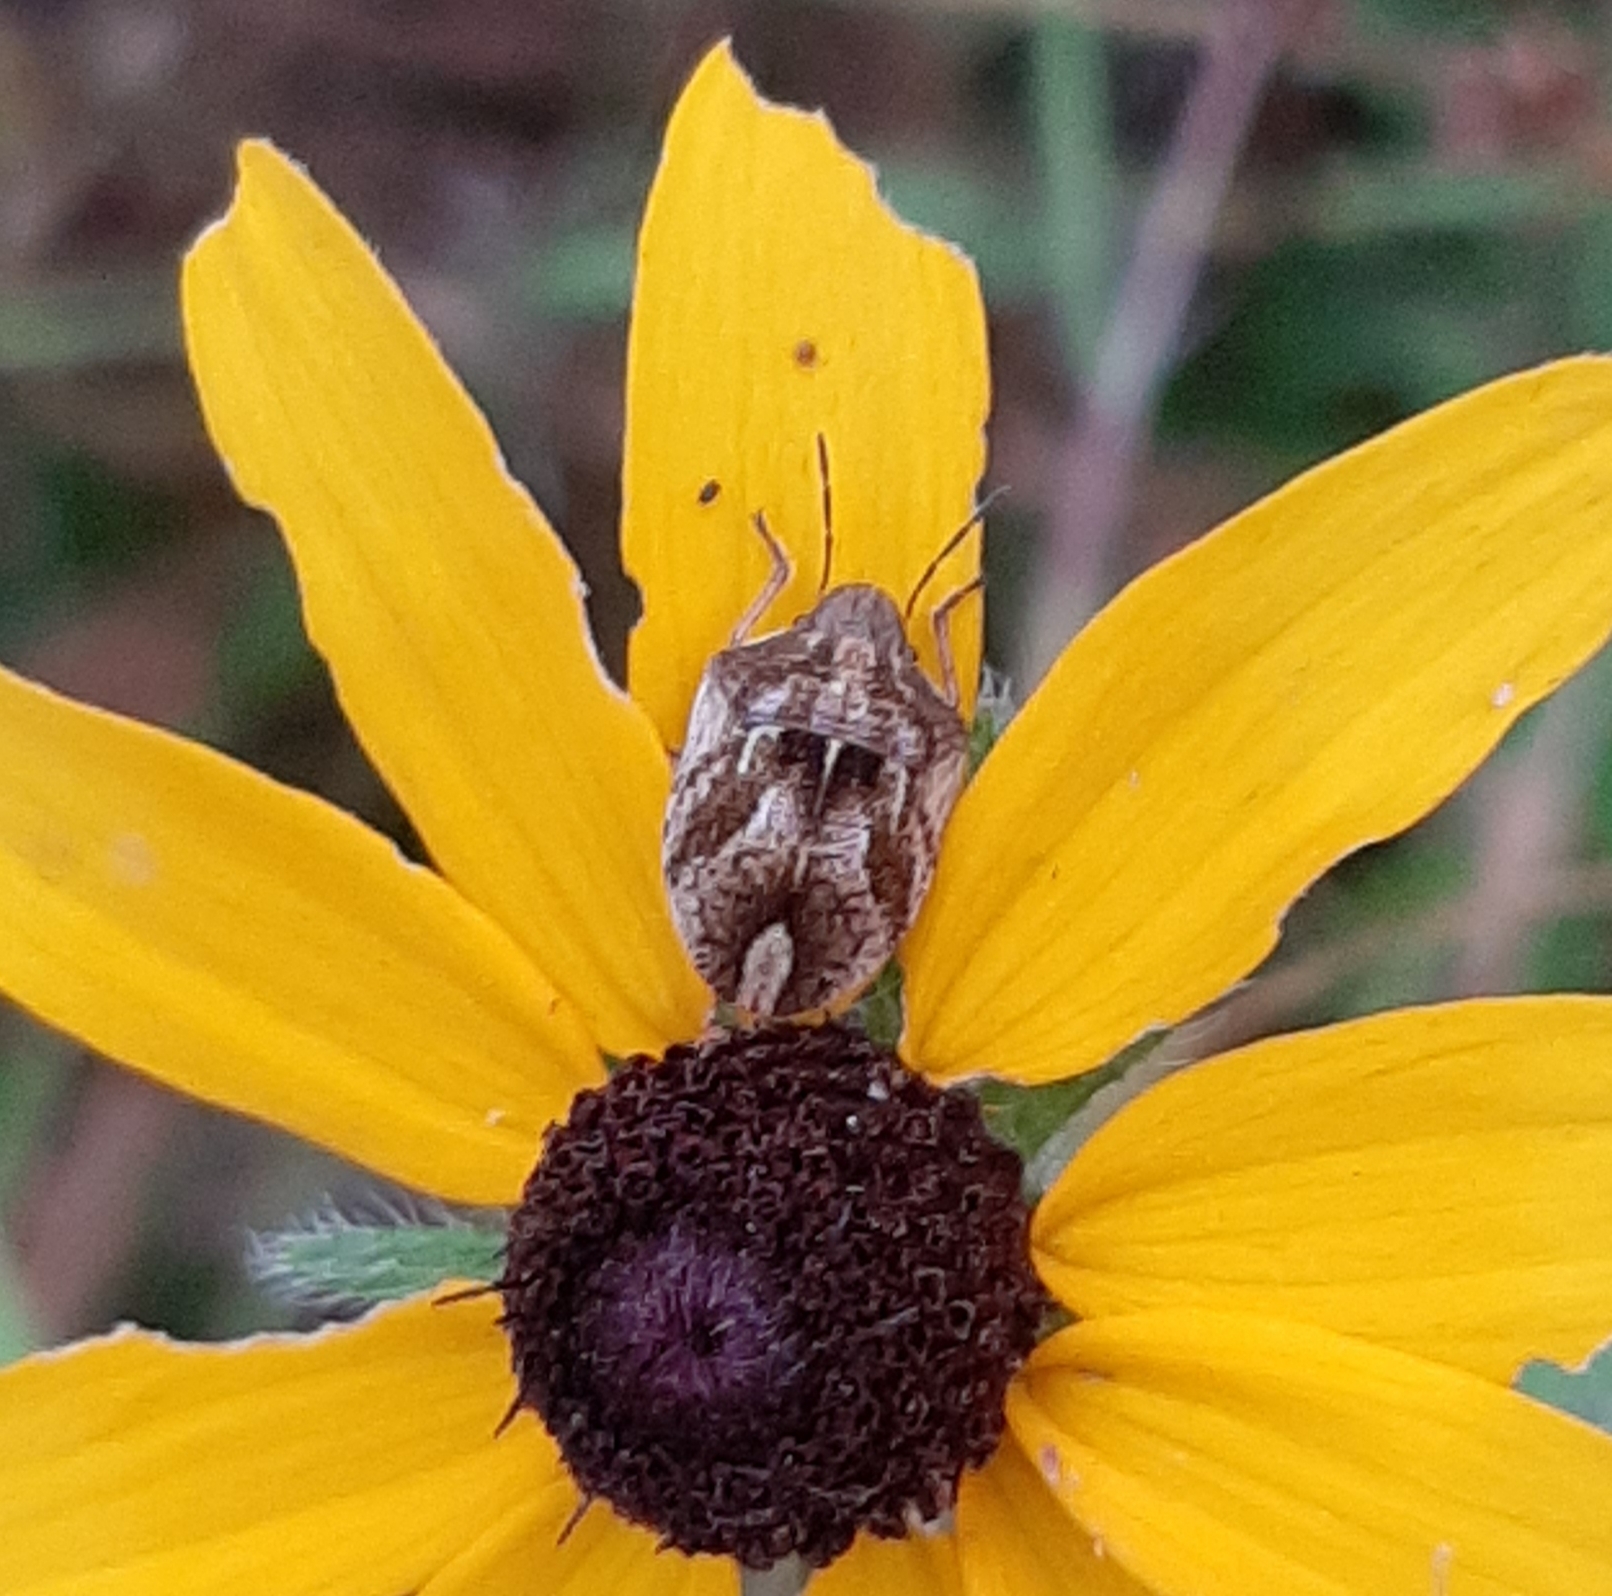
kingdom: Animalia
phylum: Arthropoda
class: Insecta
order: Hemiptera
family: Scutelleridae
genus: Homaemus
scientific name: Homaemus aeneifrons
